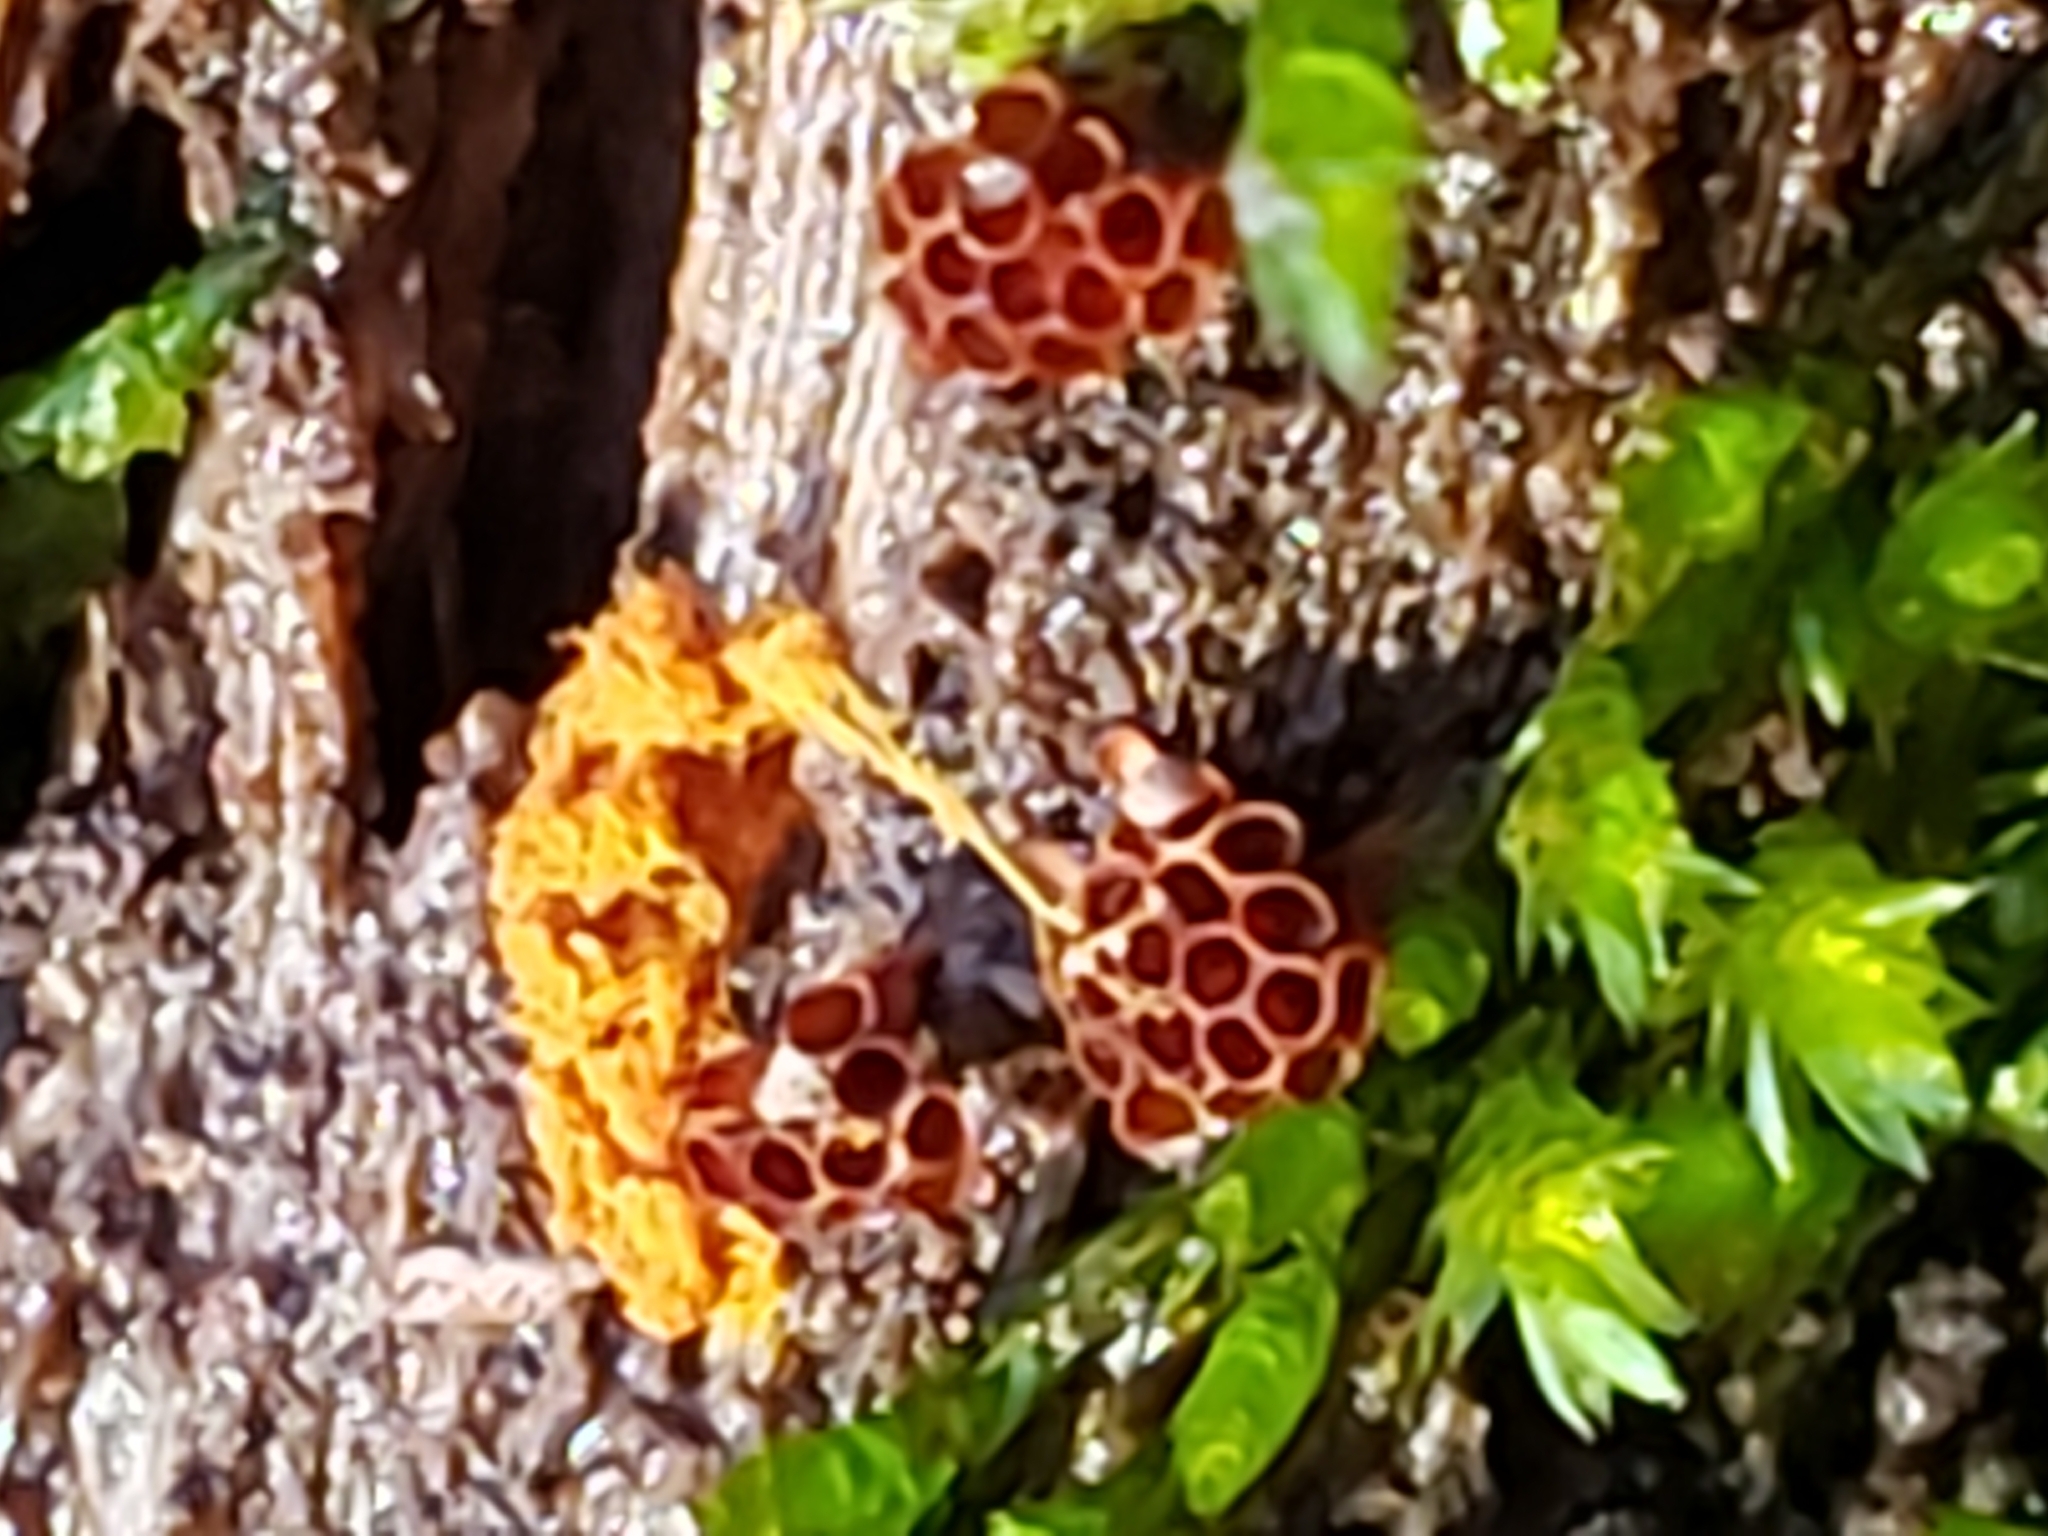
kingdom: Protozoa
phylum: Mycetozoa
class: Myxomycetes
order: Trichiales
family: Trichiaceae
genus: Metatrichia
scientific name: Metatrichia vesparia
